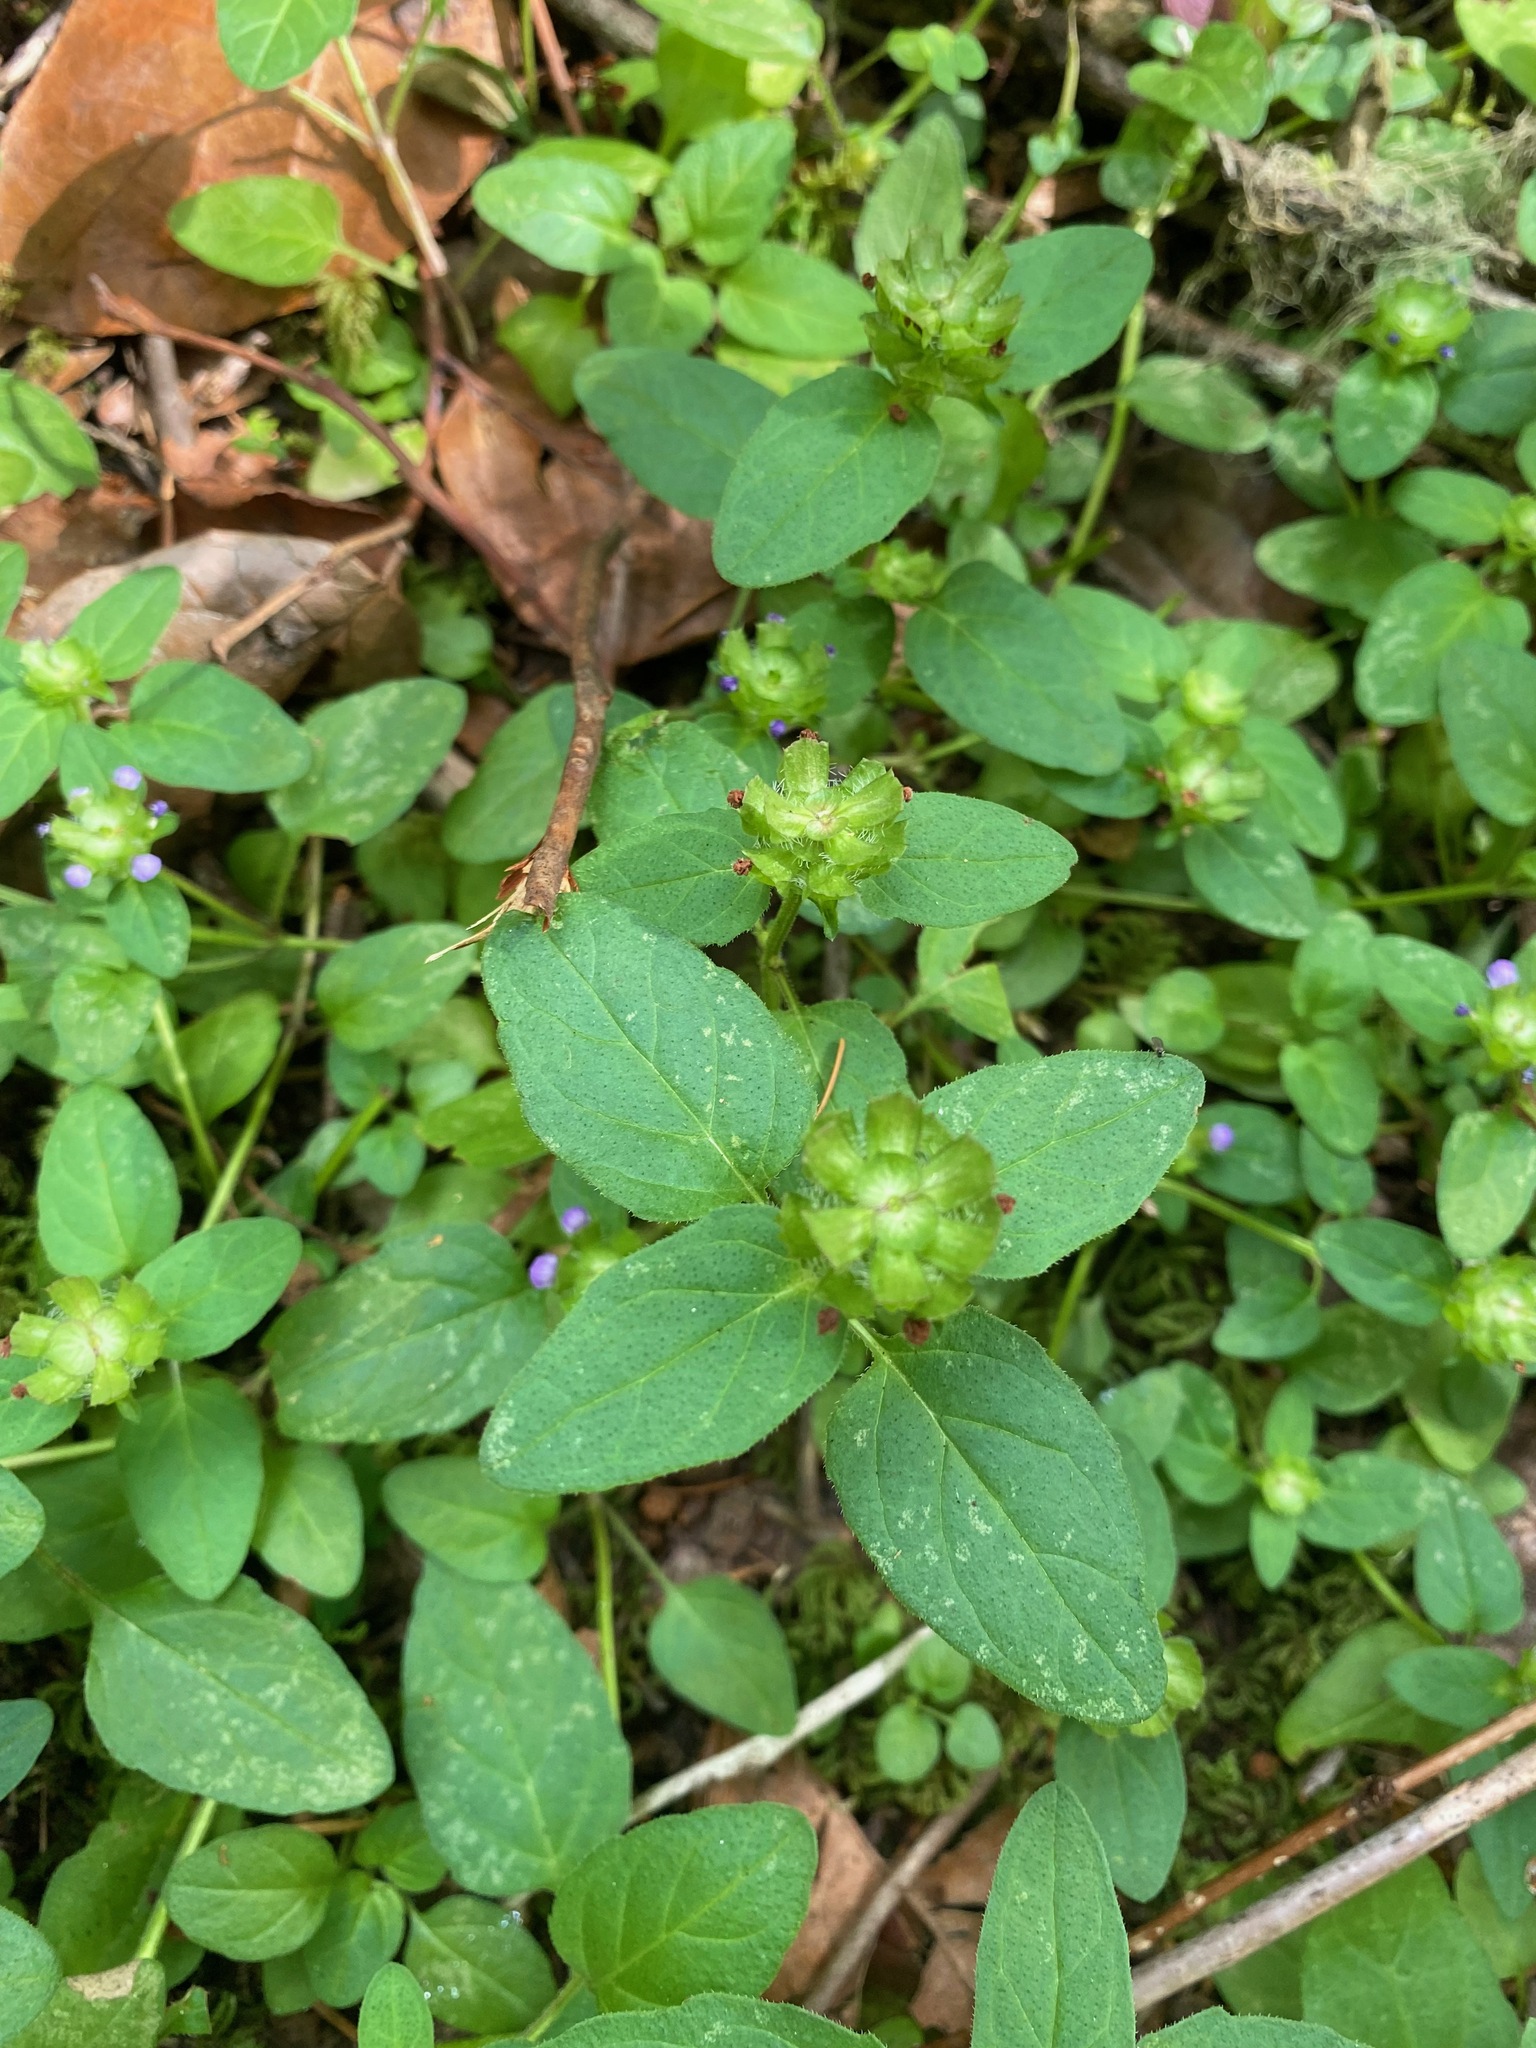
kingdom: Plantae
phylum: Tracheophyta
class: Magnoliopsida
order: Lamiales
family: Lamiaceae
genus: Prunella
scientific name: Prunella vulgaris
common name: Heal-all
